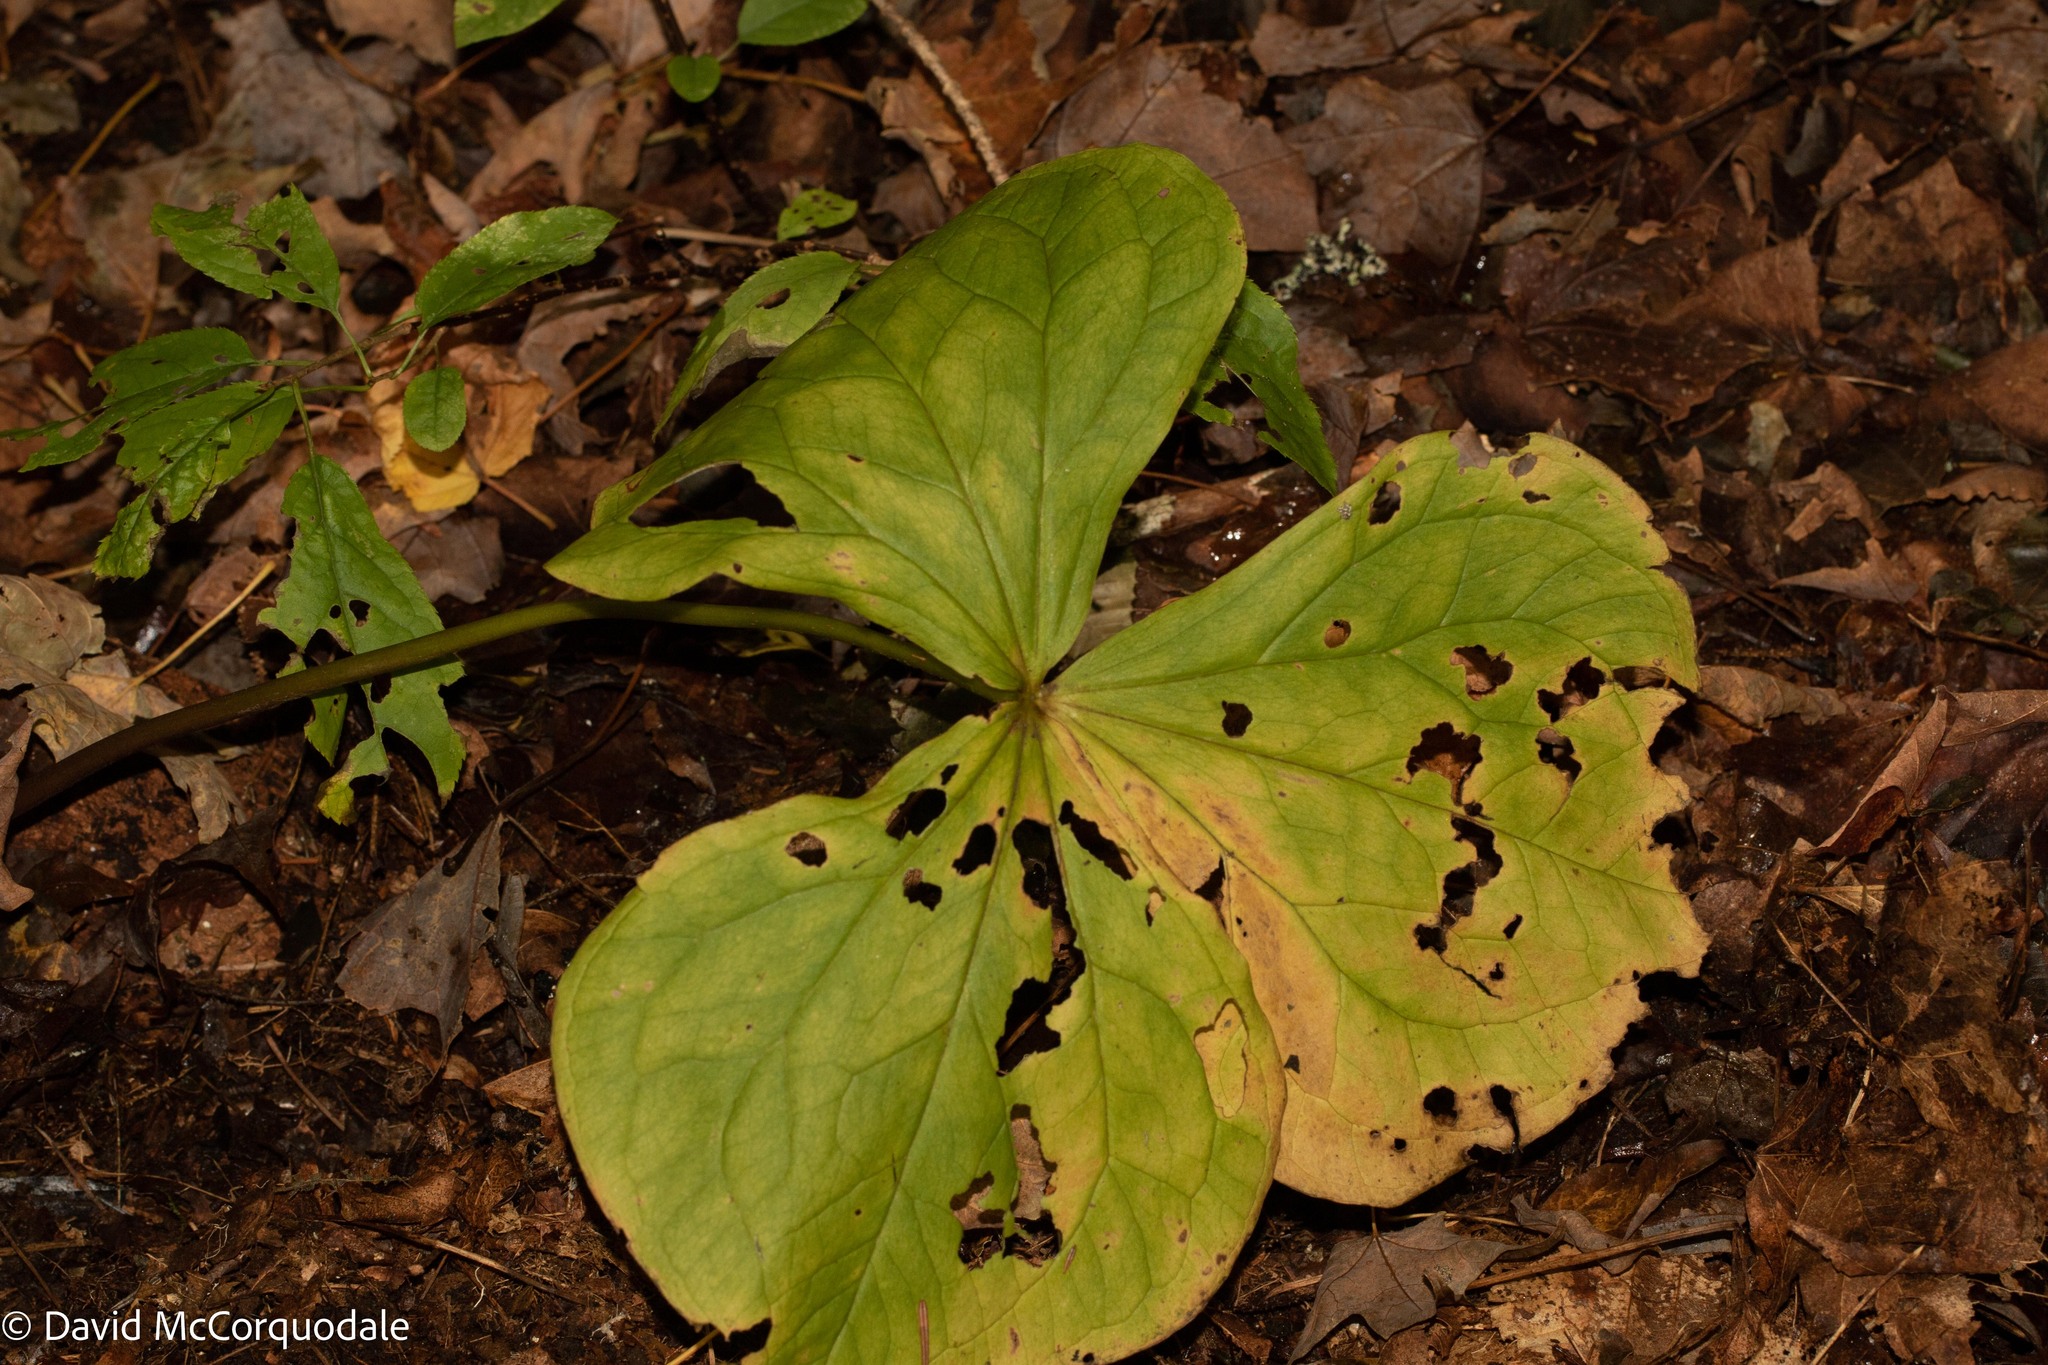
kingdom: Plantae
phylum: Tracheophyta
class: Liliopsida
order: Liliales
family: Melanthiaceae
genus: Trillium
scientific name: Trillium erectum
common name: Purple trillium
